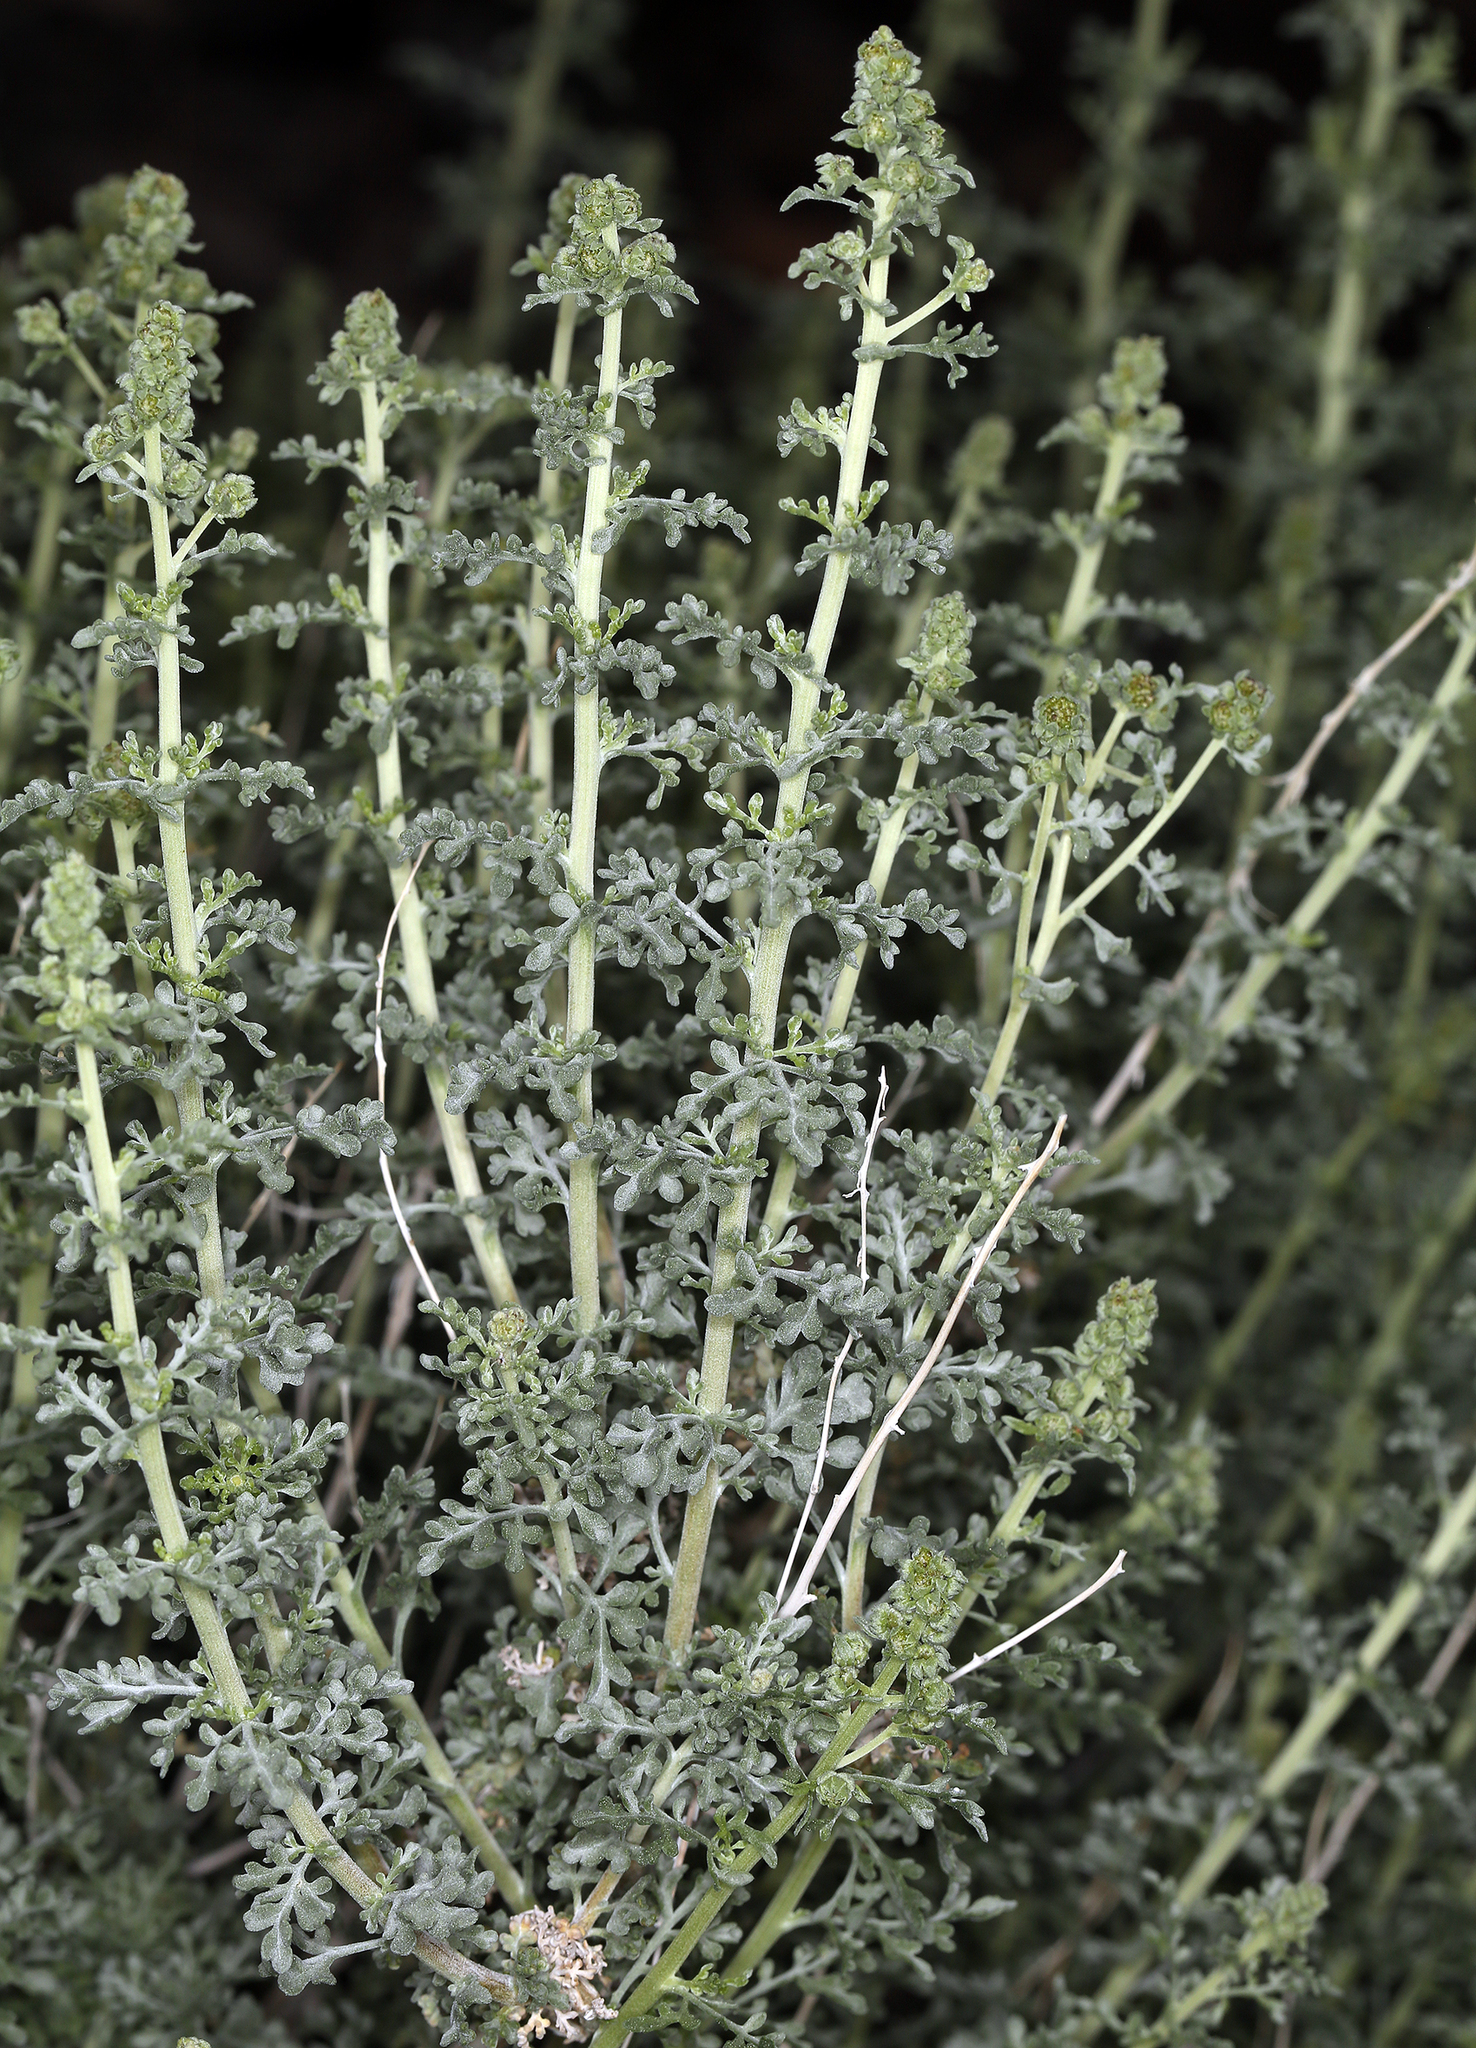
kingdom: Plantae
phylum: Tracheophyta
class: Magnoliopsida
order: Asterales
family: Asteraceae
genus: Ambrosia
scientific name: Ambrosia dumosa
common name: Bur-sage
